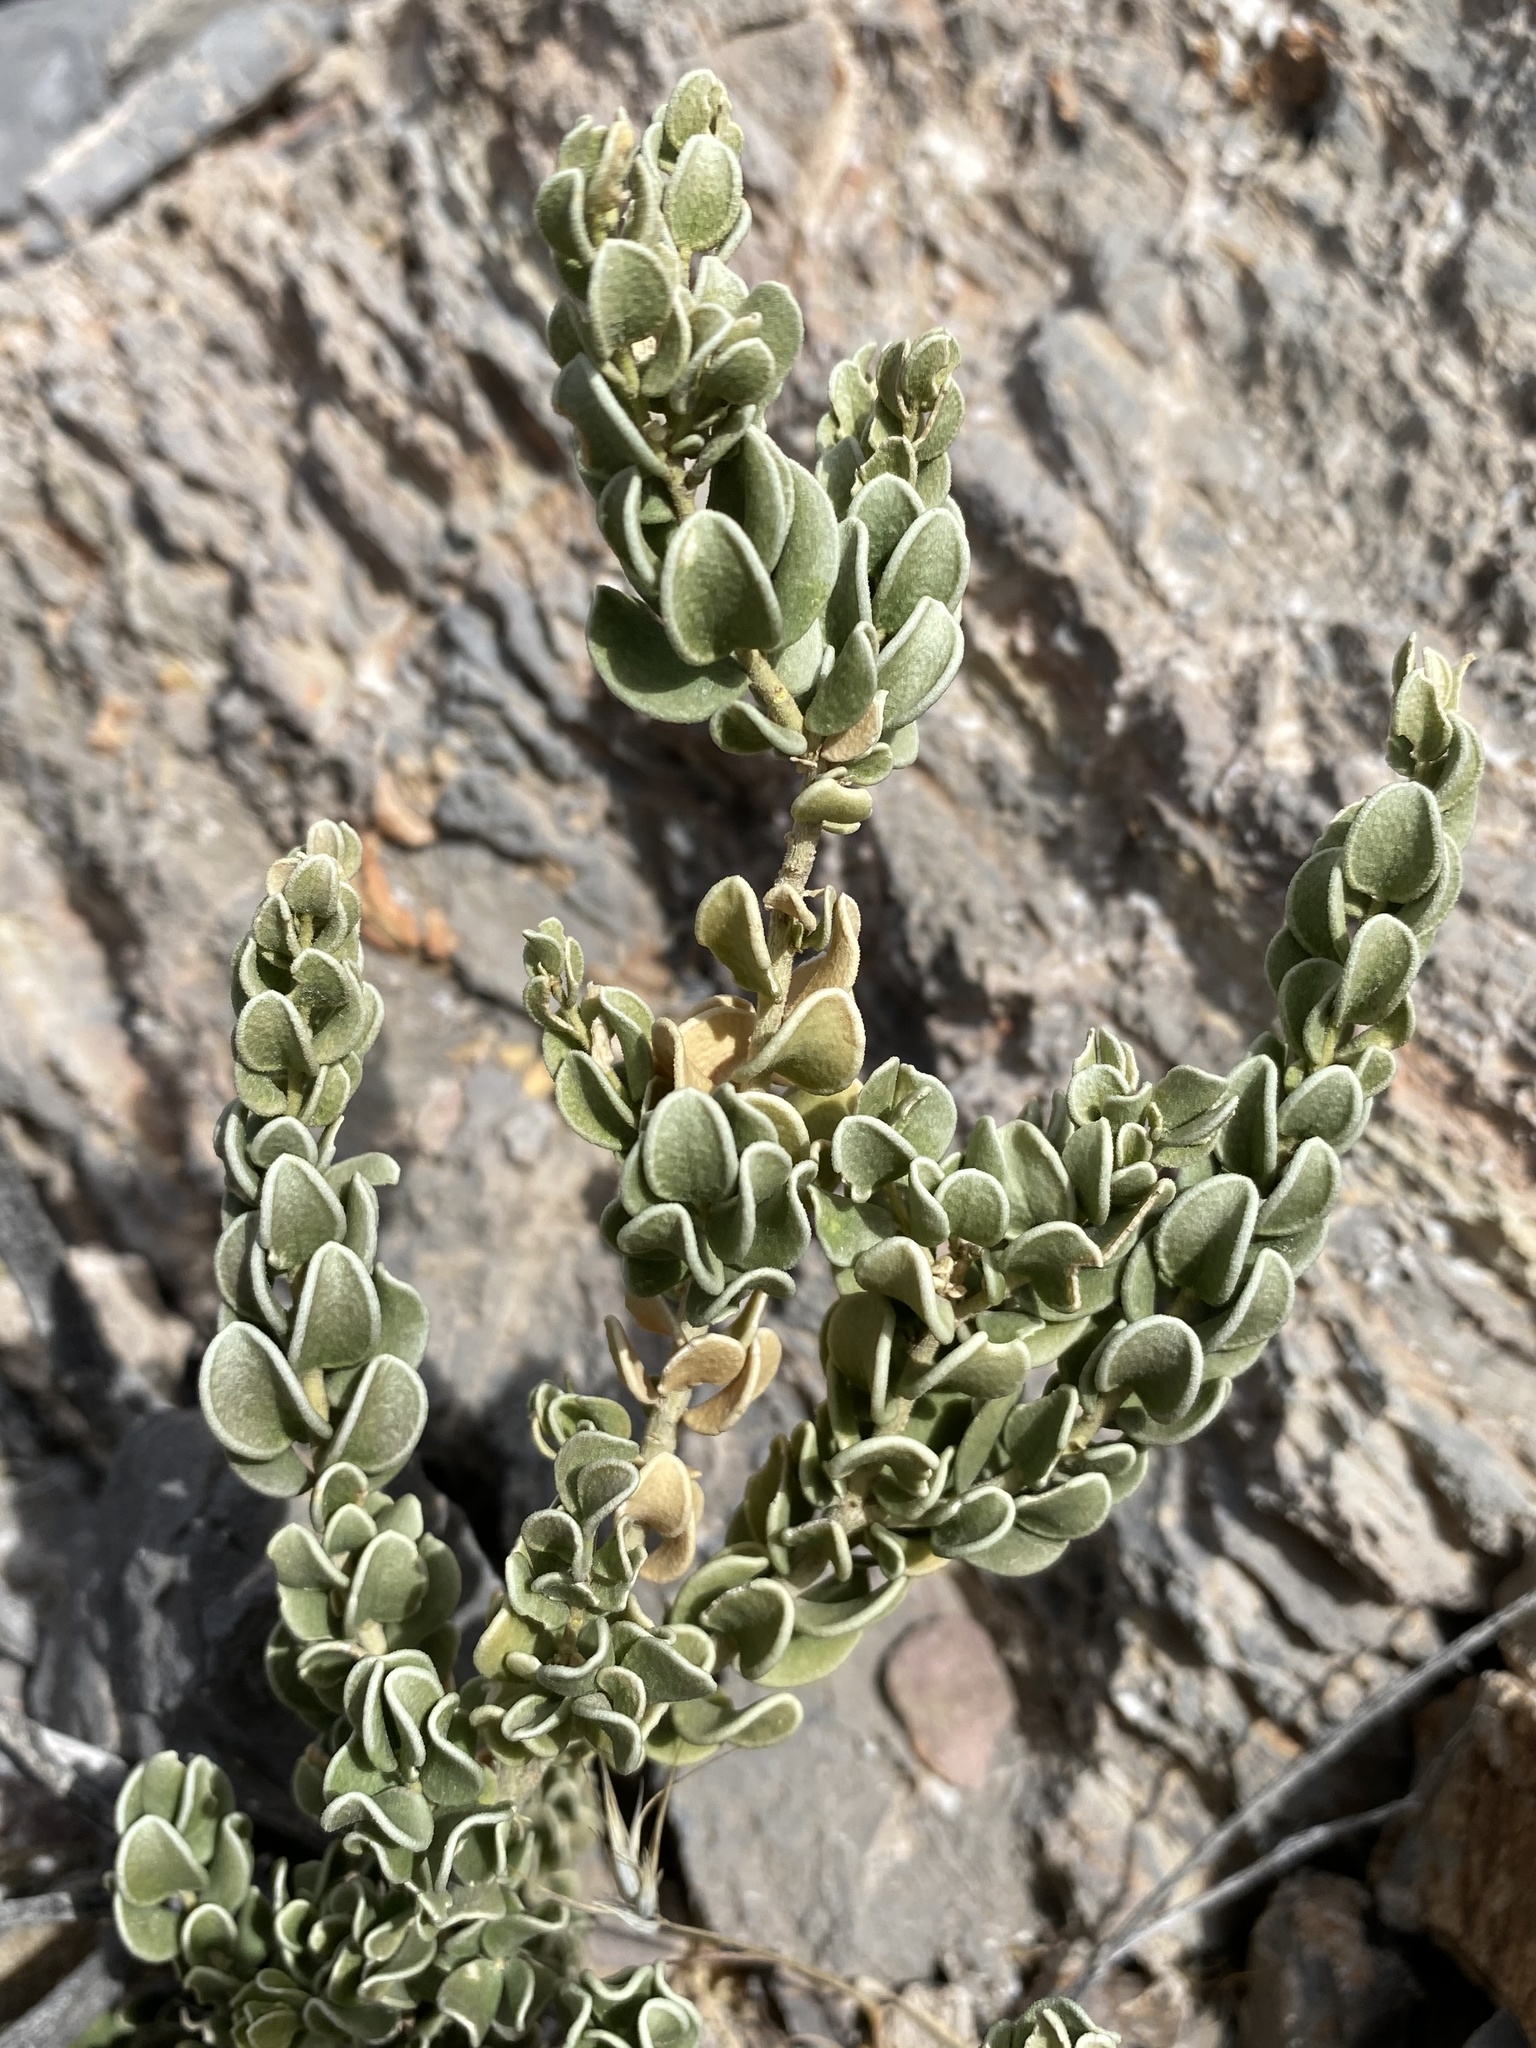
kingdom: Plantae
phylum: Tracheophyta
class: Magnoliopsida
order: Celastrales
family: Celastraceae
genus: Mortonia
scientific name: Mortonia utahensis
